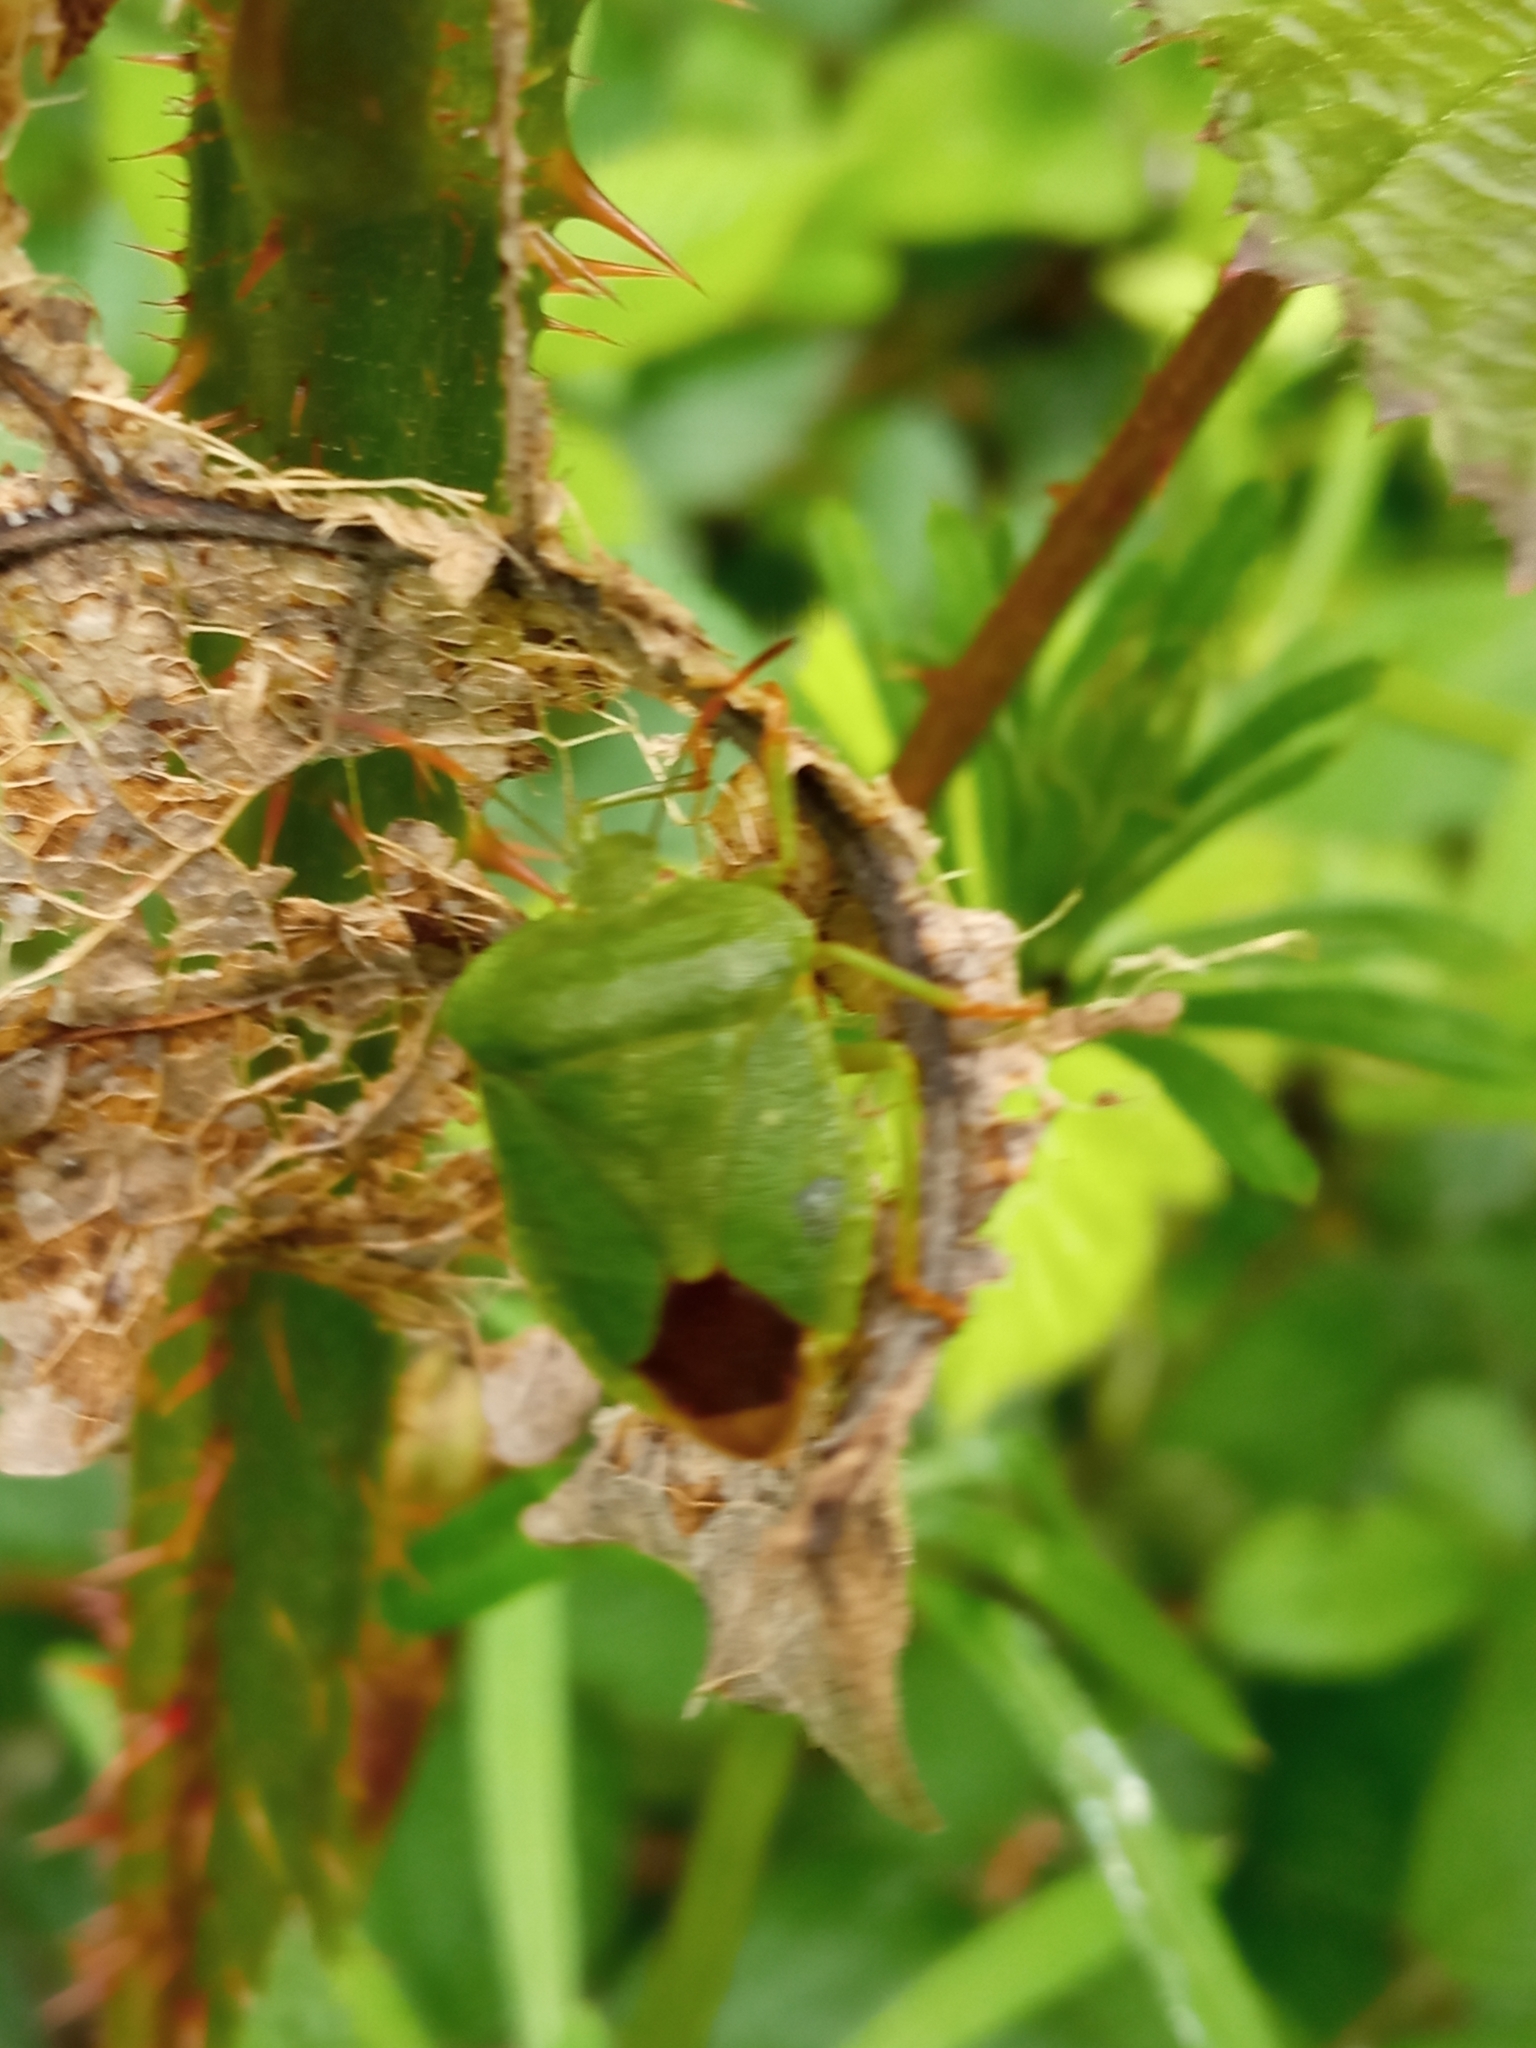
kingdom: Animalia
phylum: Arthropoda
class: Insecta
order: Hemiptera
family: Pentatomidae
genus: Palomena
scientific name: Palomena prasina
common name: Green shieldbug
